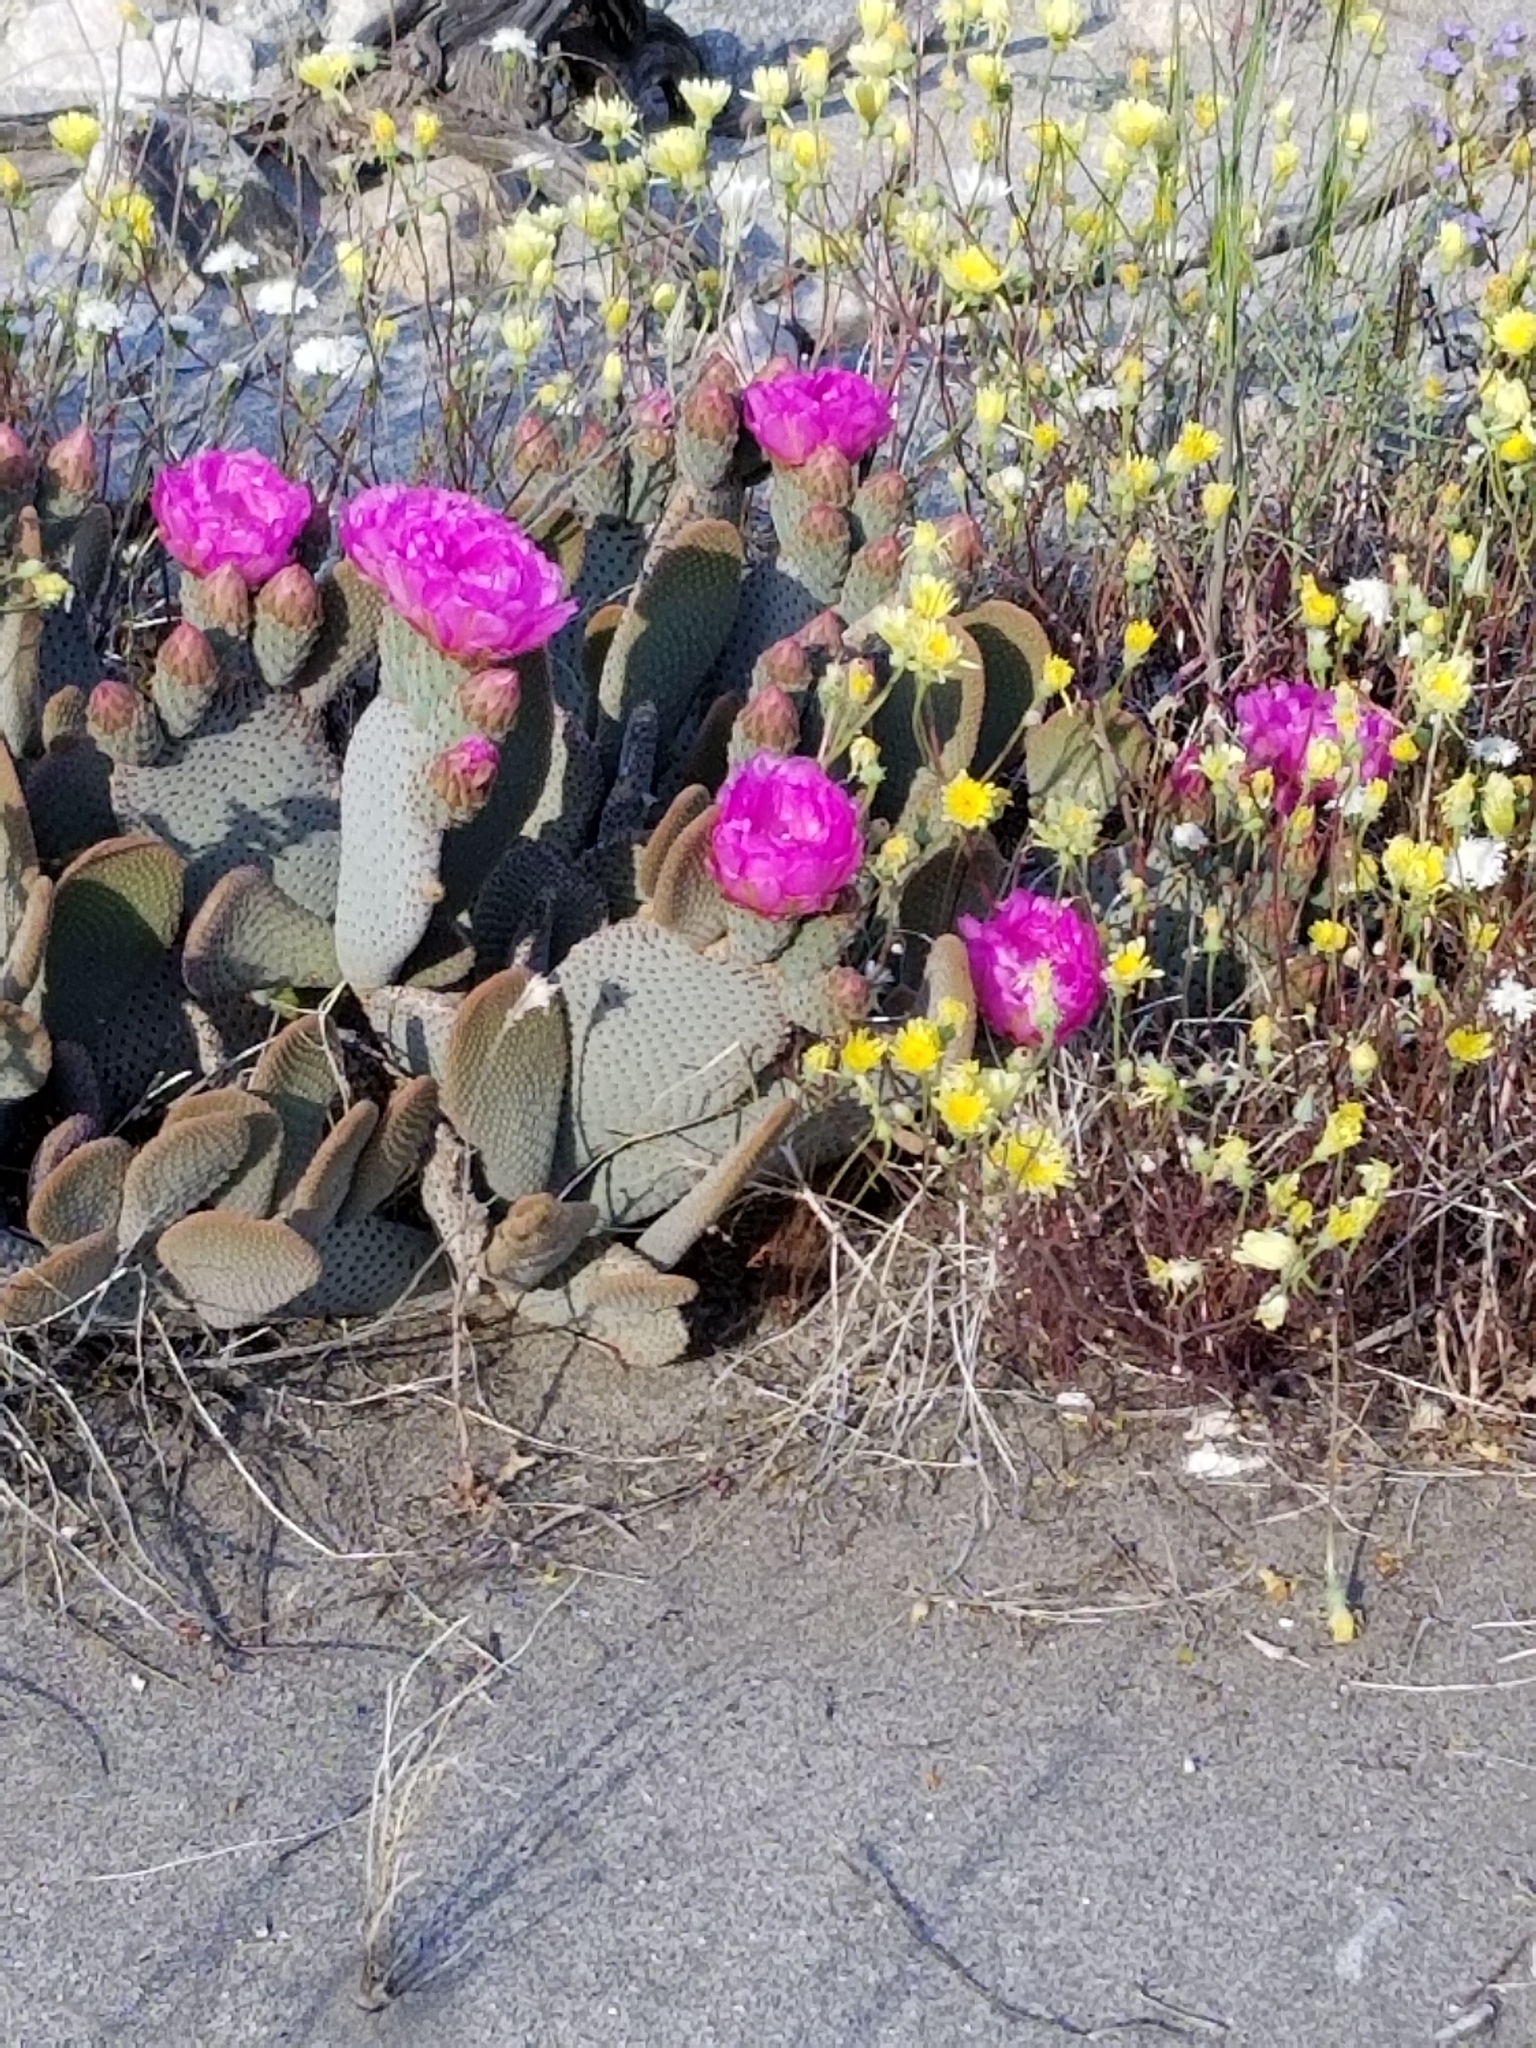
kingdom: Plantae
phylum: Tracheophyta
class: Magnoliopsida
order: Caryophyllales
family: Cactaceae
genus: Opuntia
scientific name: Opuntia basilaris
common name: Beavertail prickly-pear
